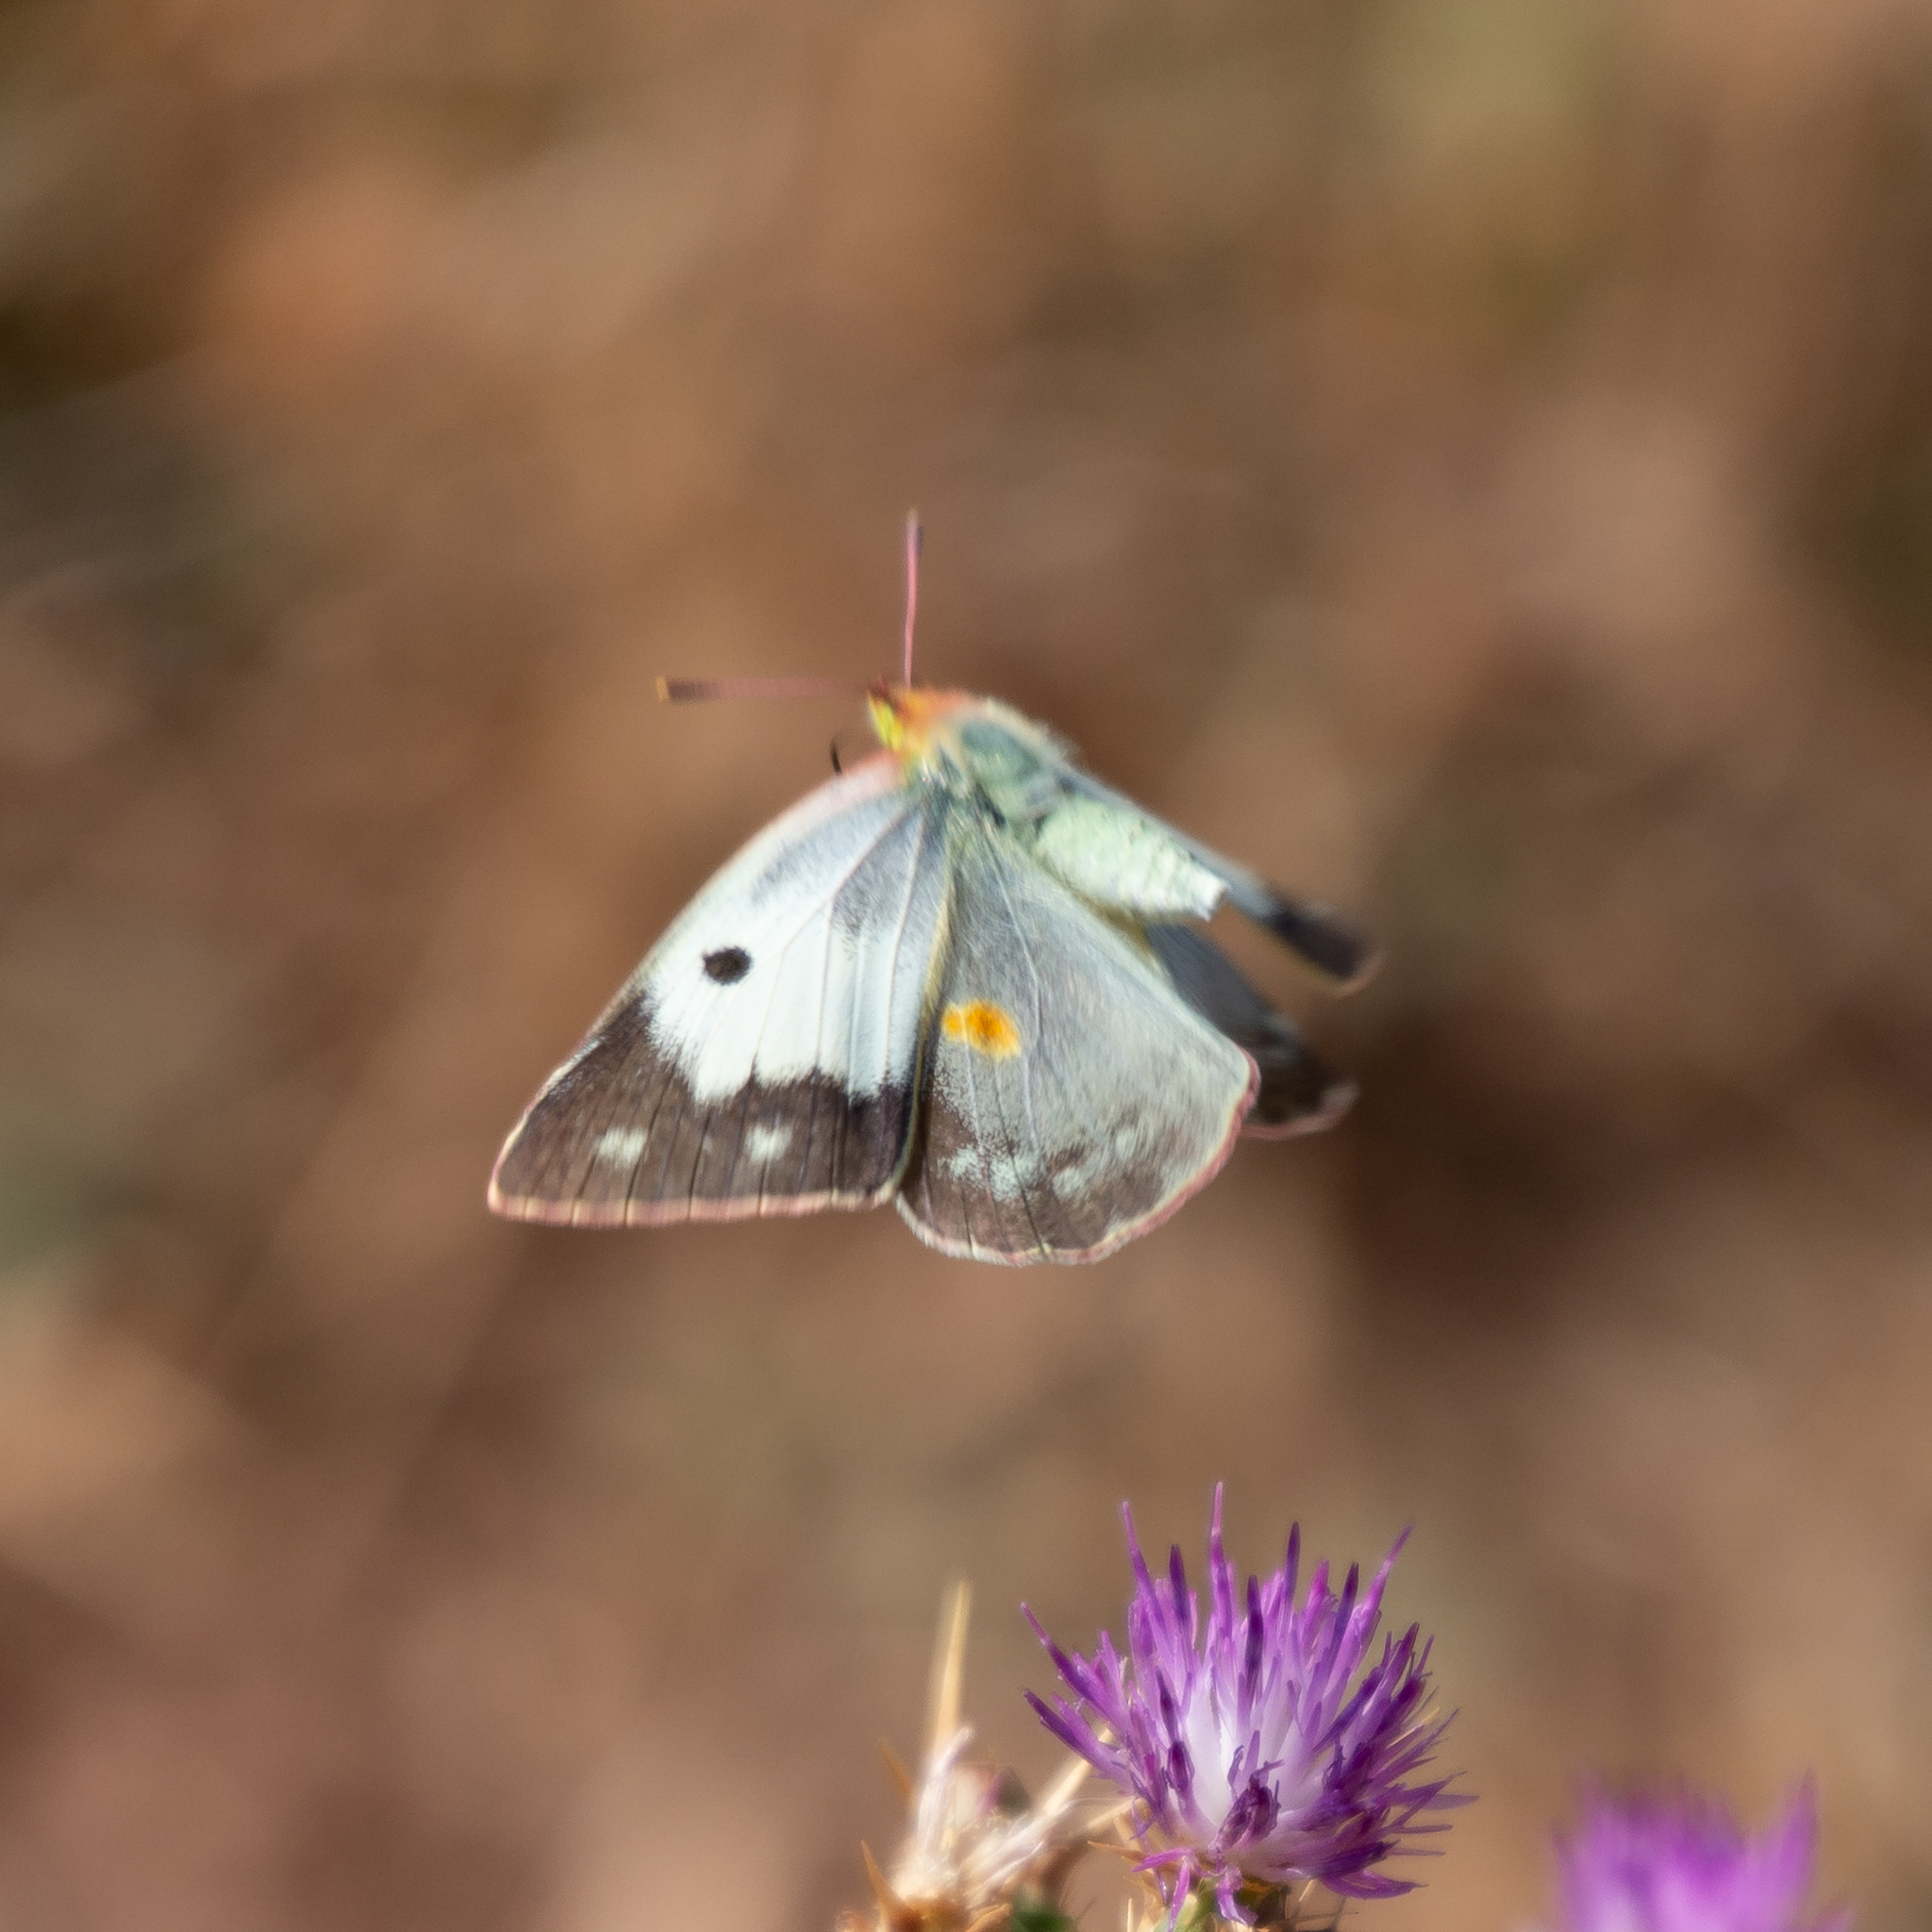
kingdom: Animalia
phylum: Arthropoda
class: Insecta
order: Lepidoptera
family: Pieridae
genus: Colias
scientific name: Colias croceus
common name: Clouded yellow
